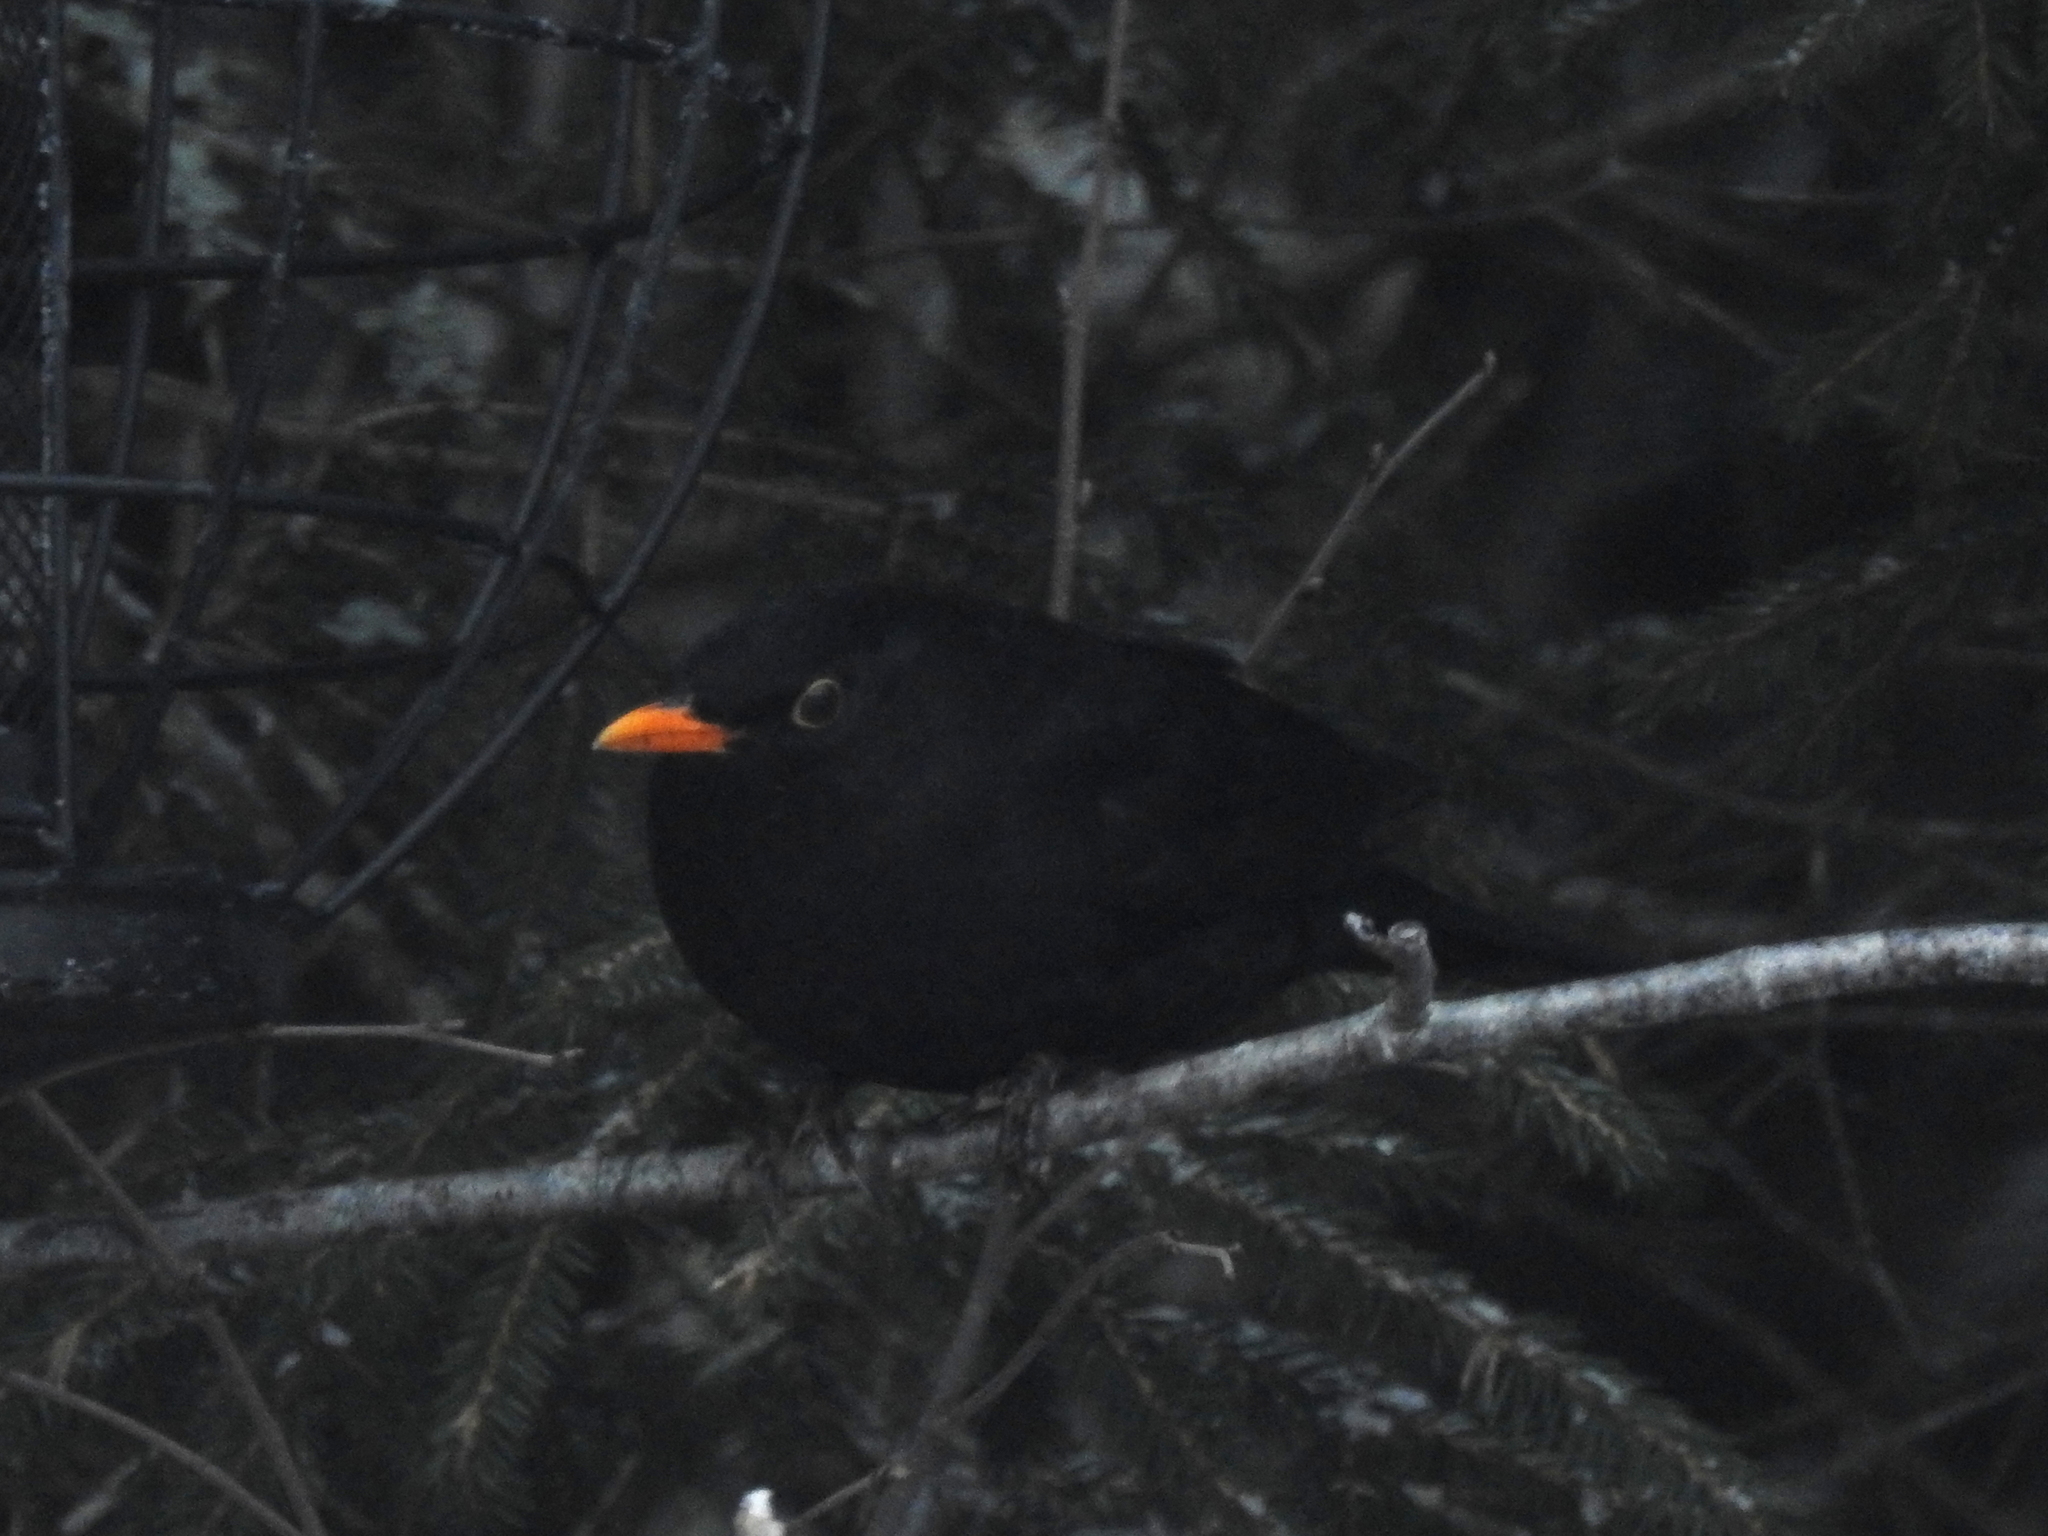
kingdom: Animalia
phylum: Chordata
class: Aves
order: Passeriformes
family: Turdidae
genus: Turdus
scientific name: Turdus merula
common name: Common blackbird
